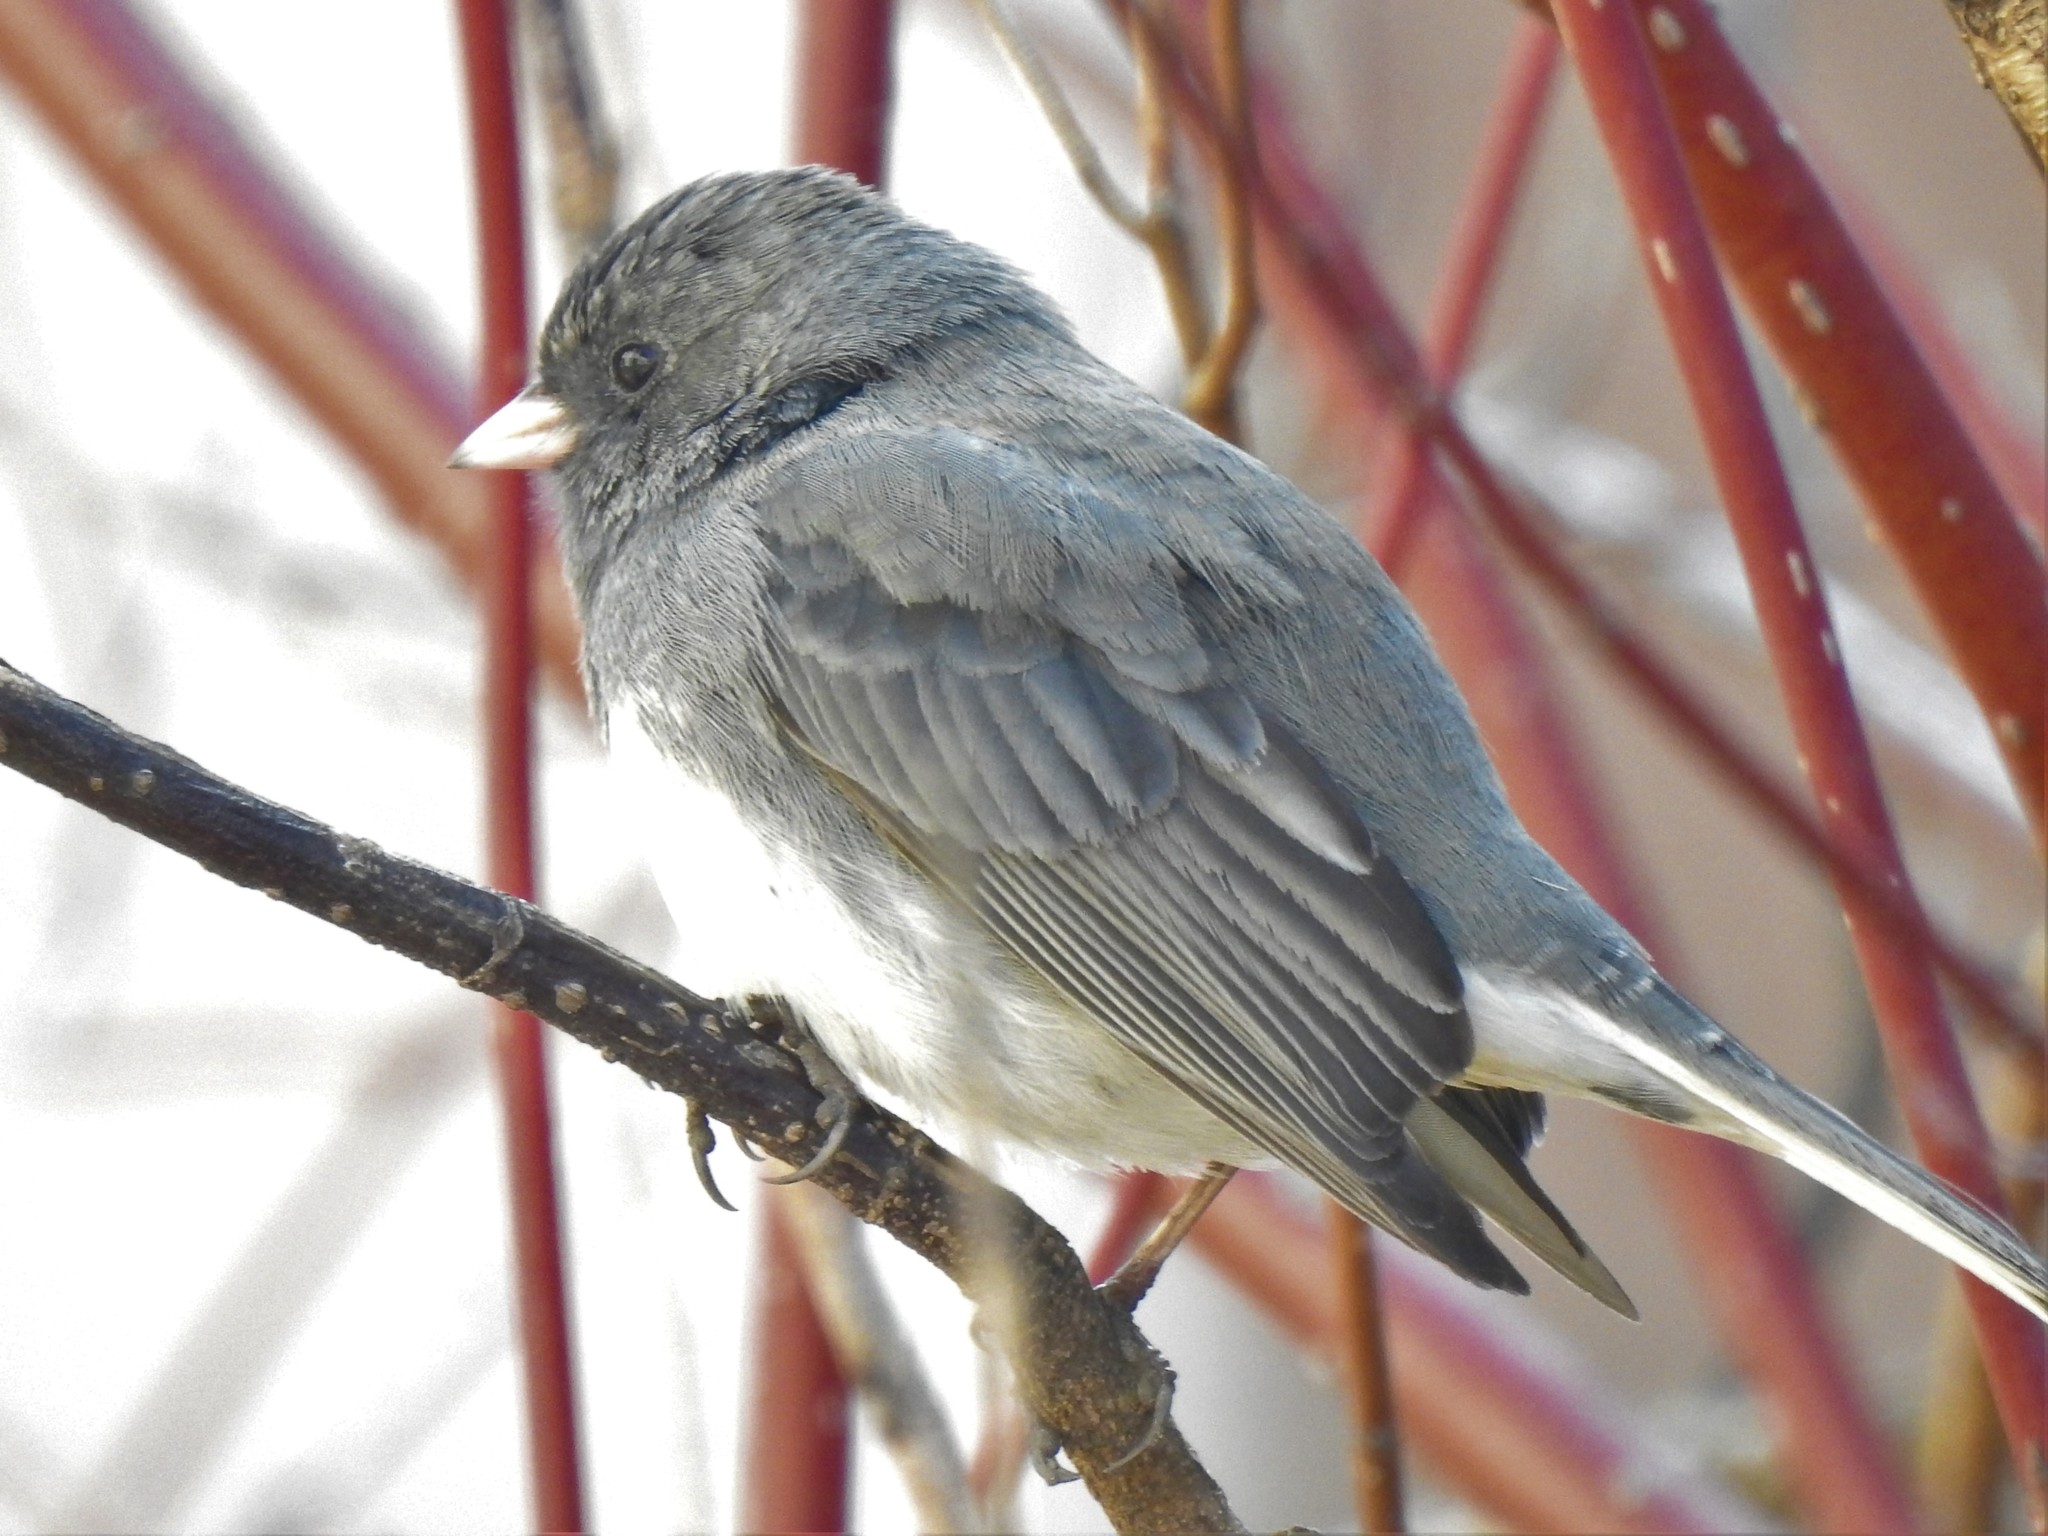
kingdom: Animalia
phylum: Chordata
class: Aves
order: Passeriformes
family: Passerellidae
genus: Junco
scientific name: Junco hyemalis
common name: Dark-eyed junco
